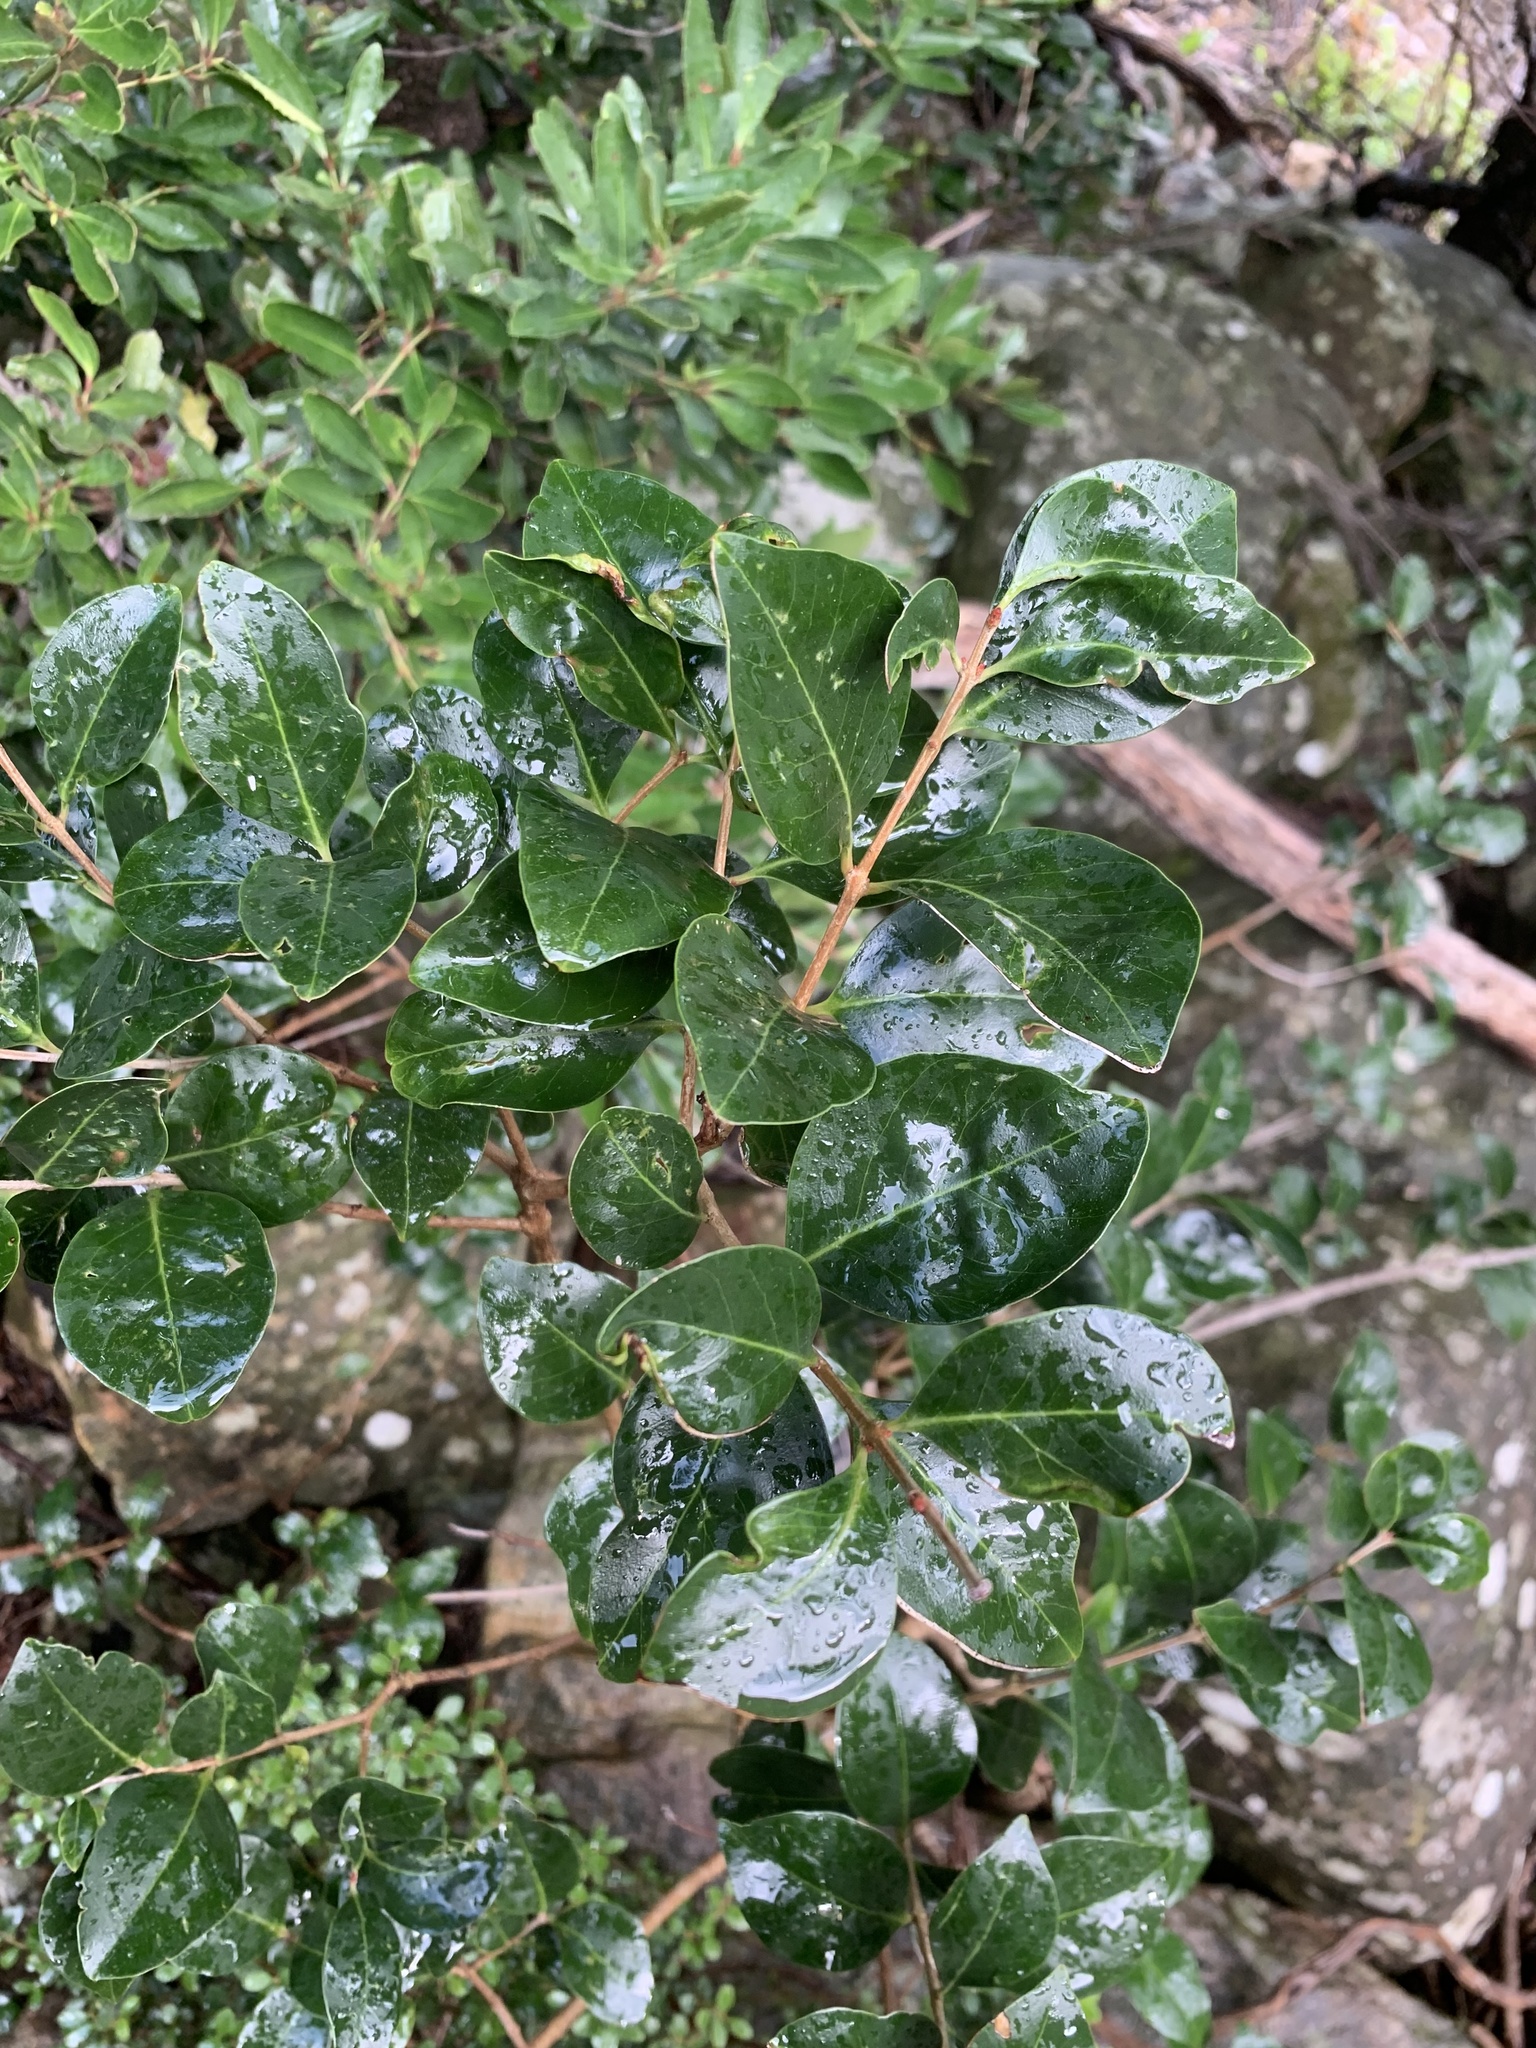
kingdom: Plantae
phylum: Tracheophyta
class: Magnoliopsida
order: Myrtales
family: Penaeaceae
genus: Olinia
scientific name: Olinia ventosa
